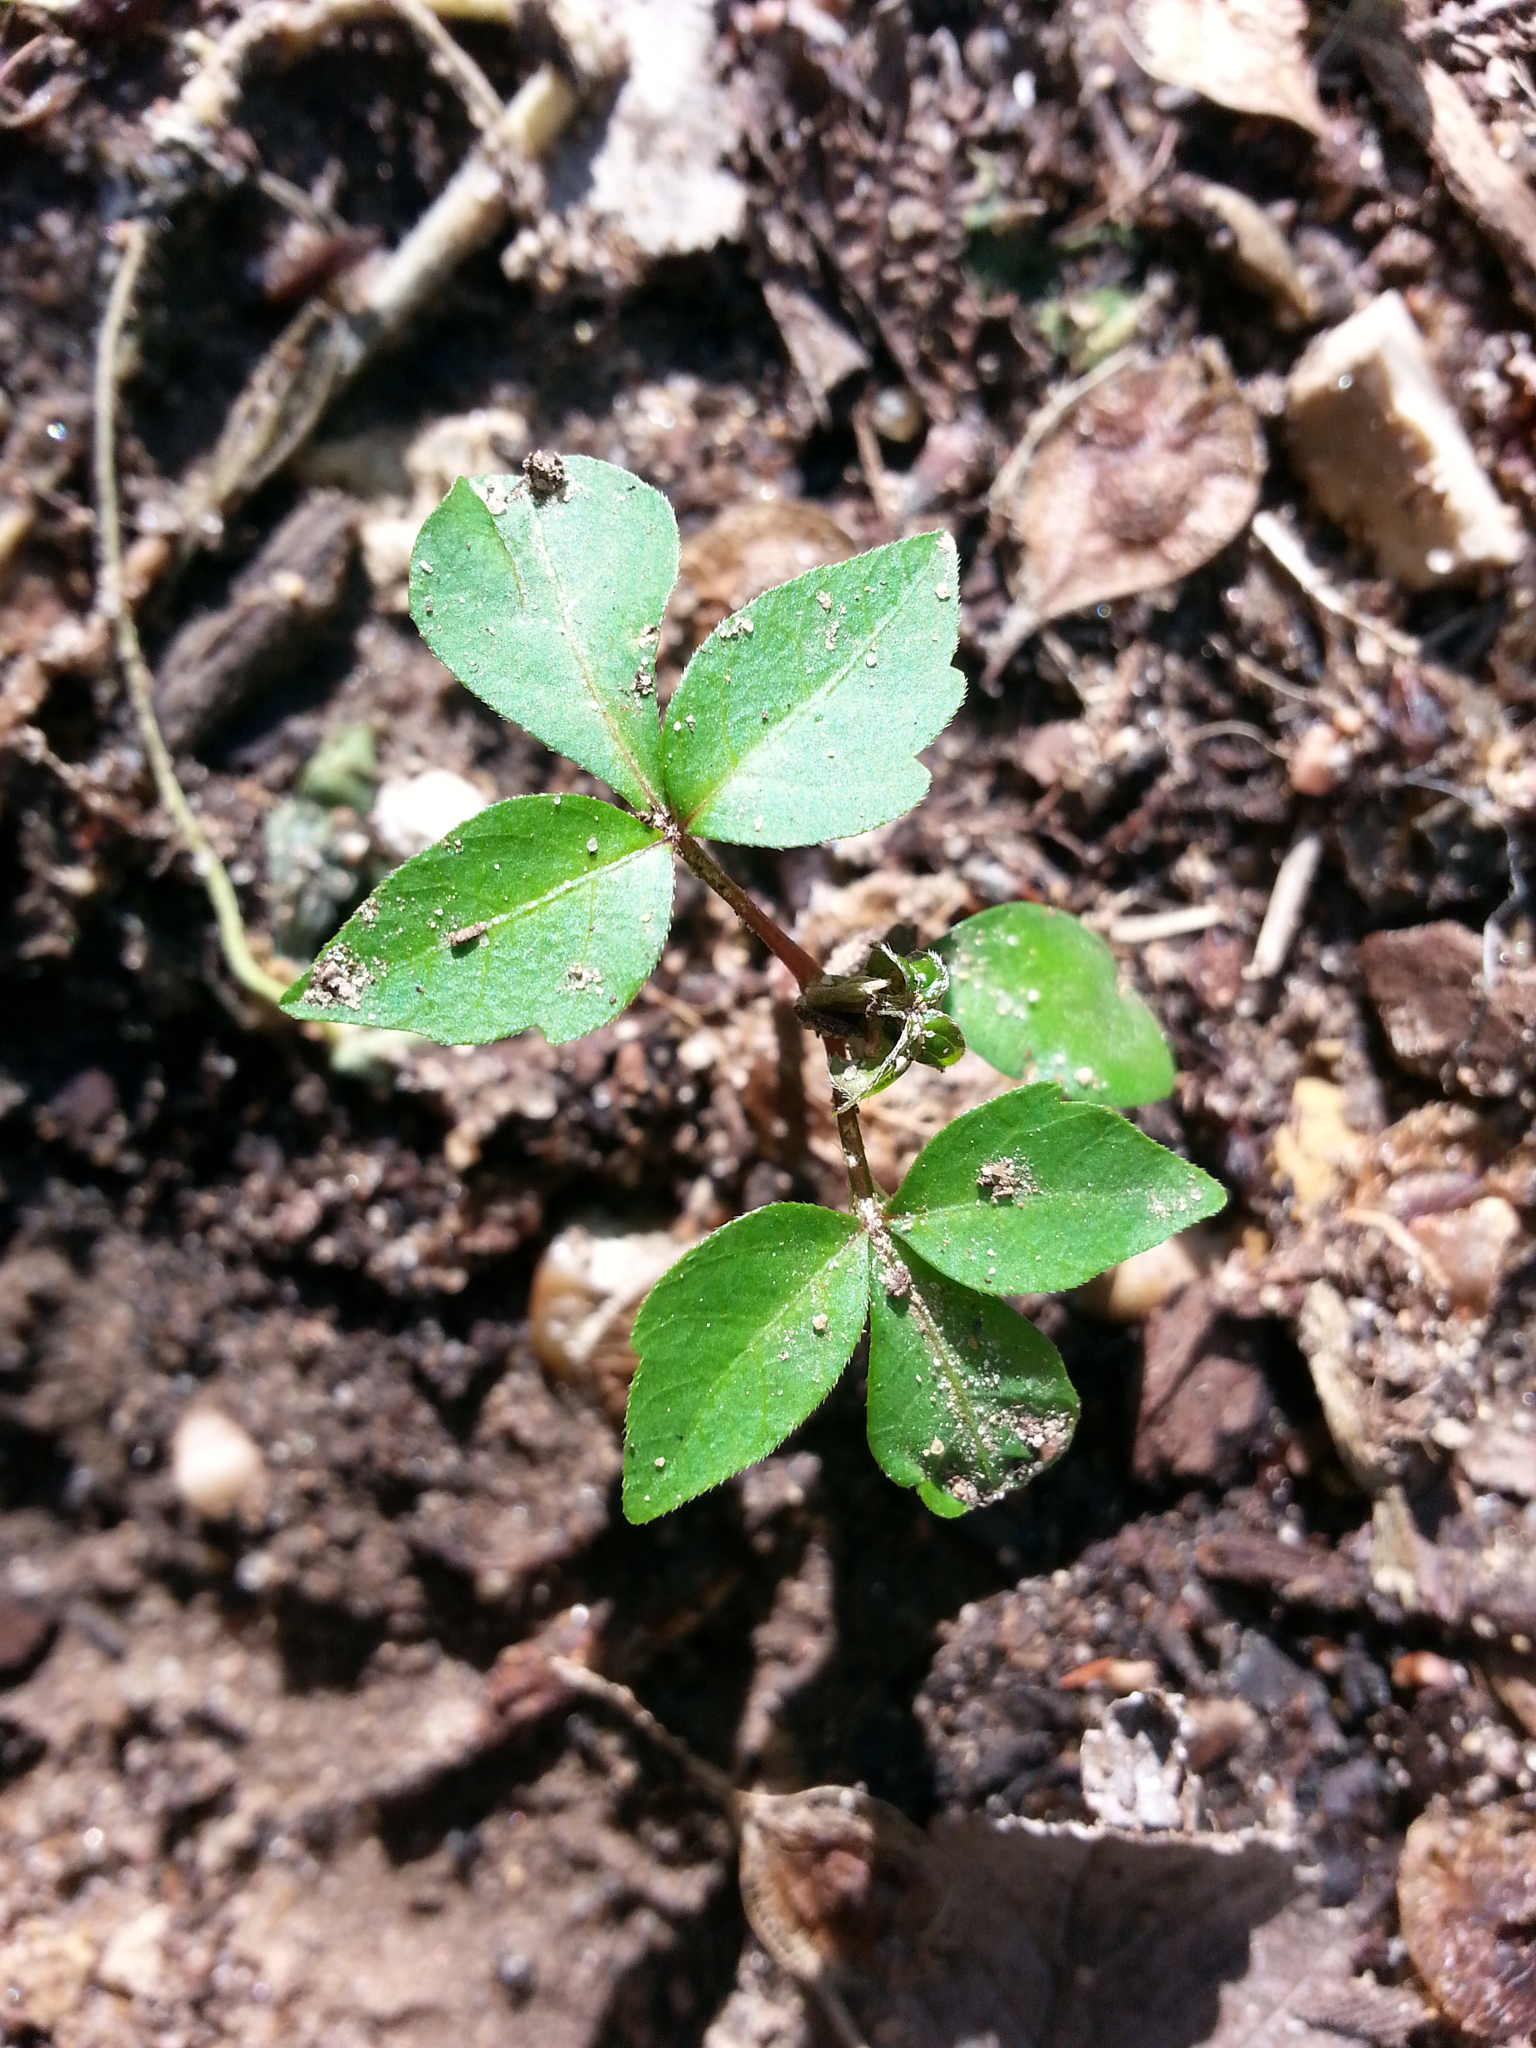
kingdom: Plantae
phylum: Tracheophyta
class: Magnoliopsida
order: Sapindales
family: Anacardiaceae
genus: Toxicodendron
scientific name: Toxicodendron radicans
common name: Poison ivy
